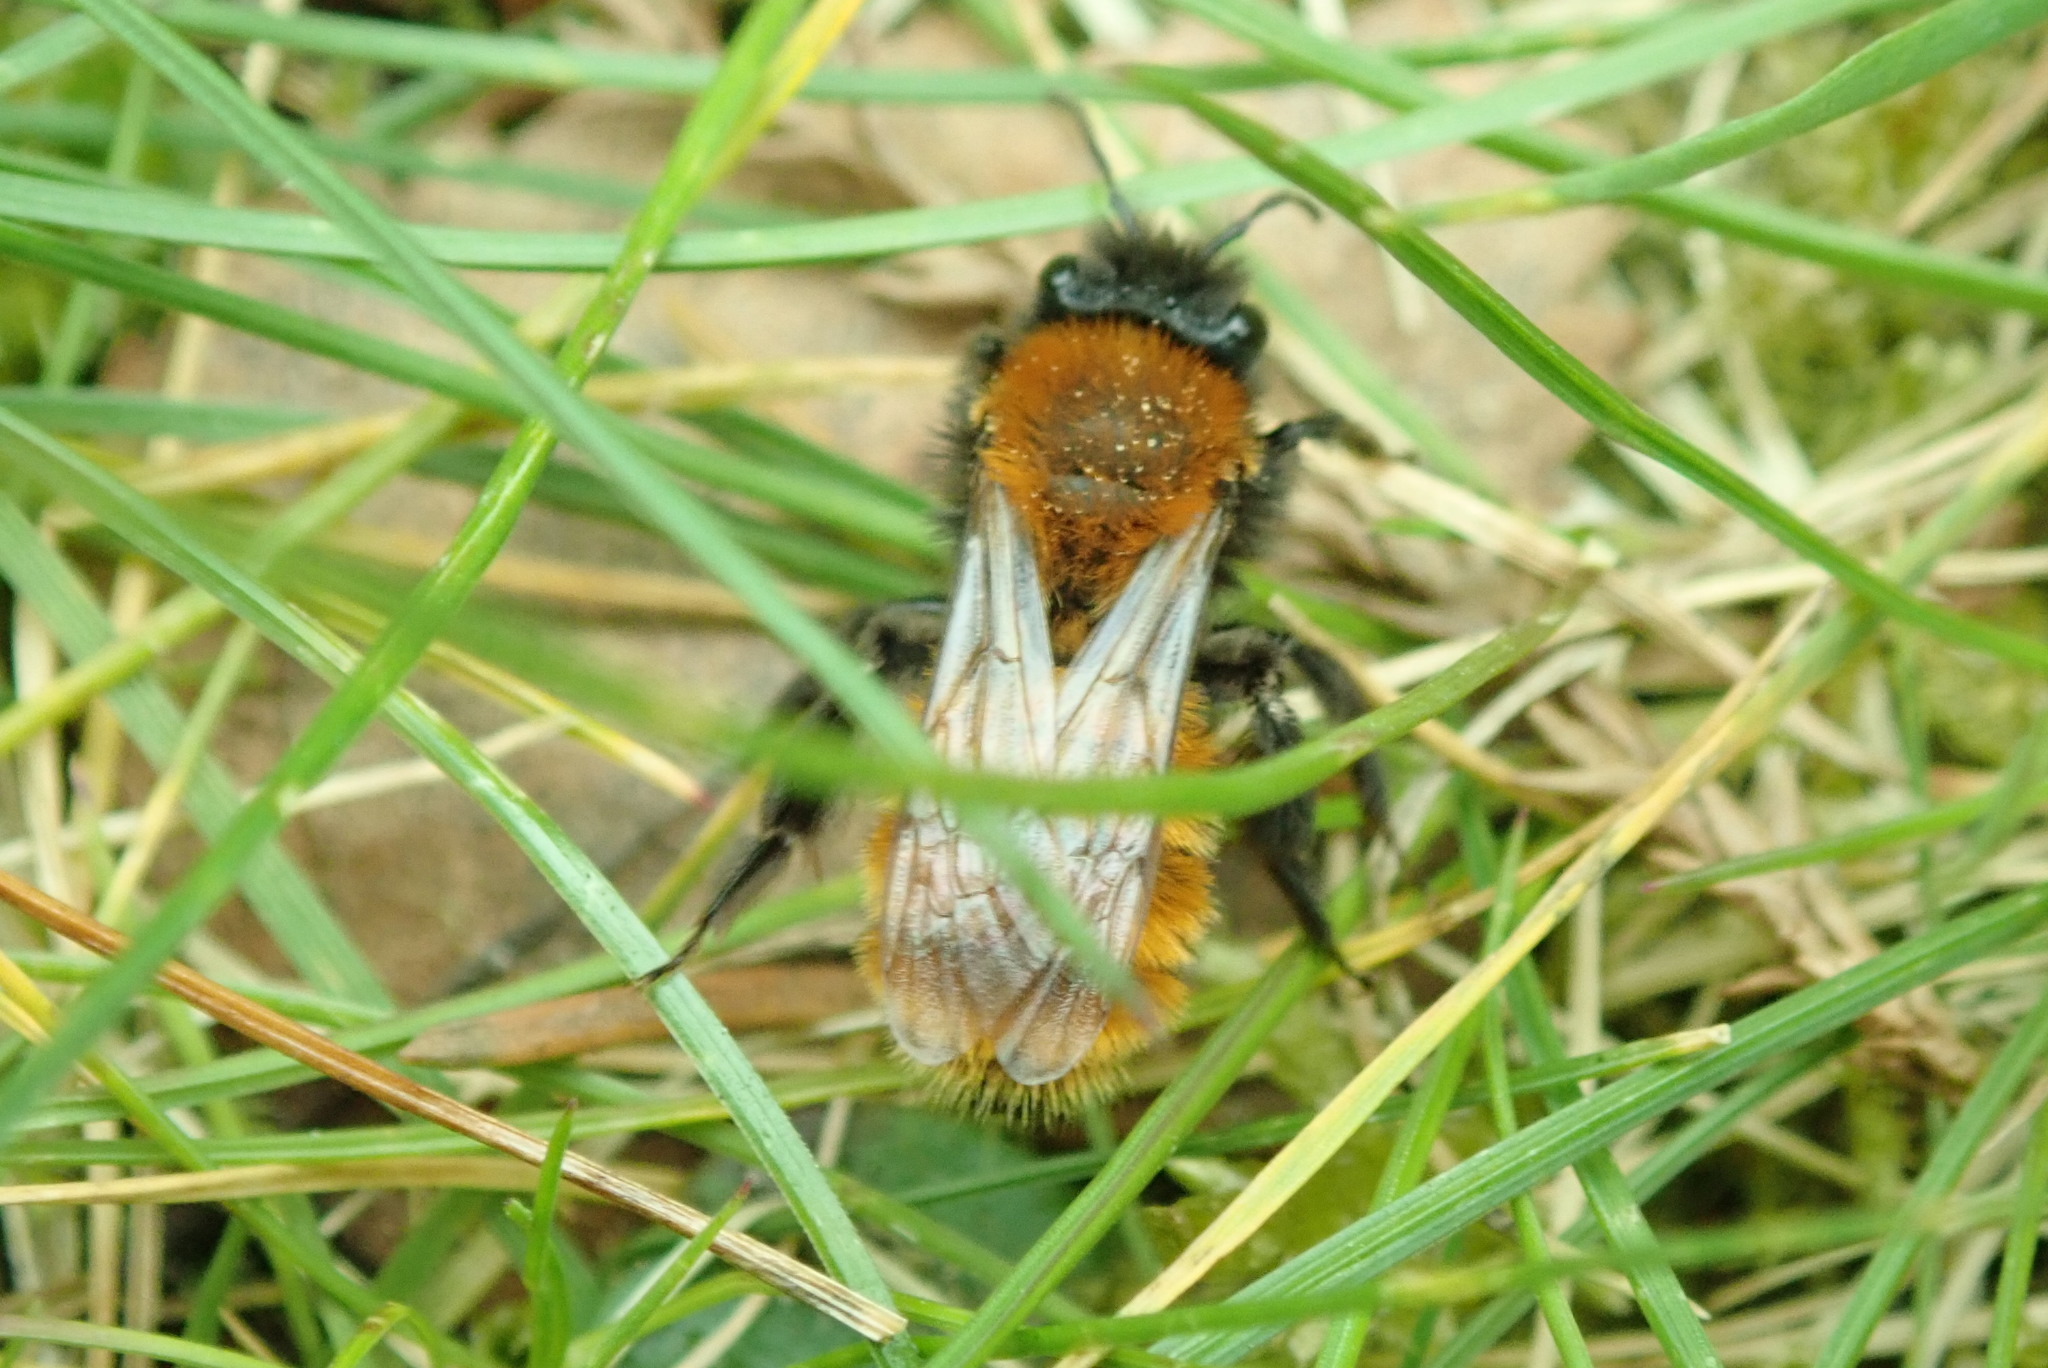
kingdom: Animalia
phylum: Arthropoda
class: Insecta
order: Hymenoptera
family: Andrenidae
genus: Andrena
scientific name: Andrena fulva
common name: Tawny mining bee
